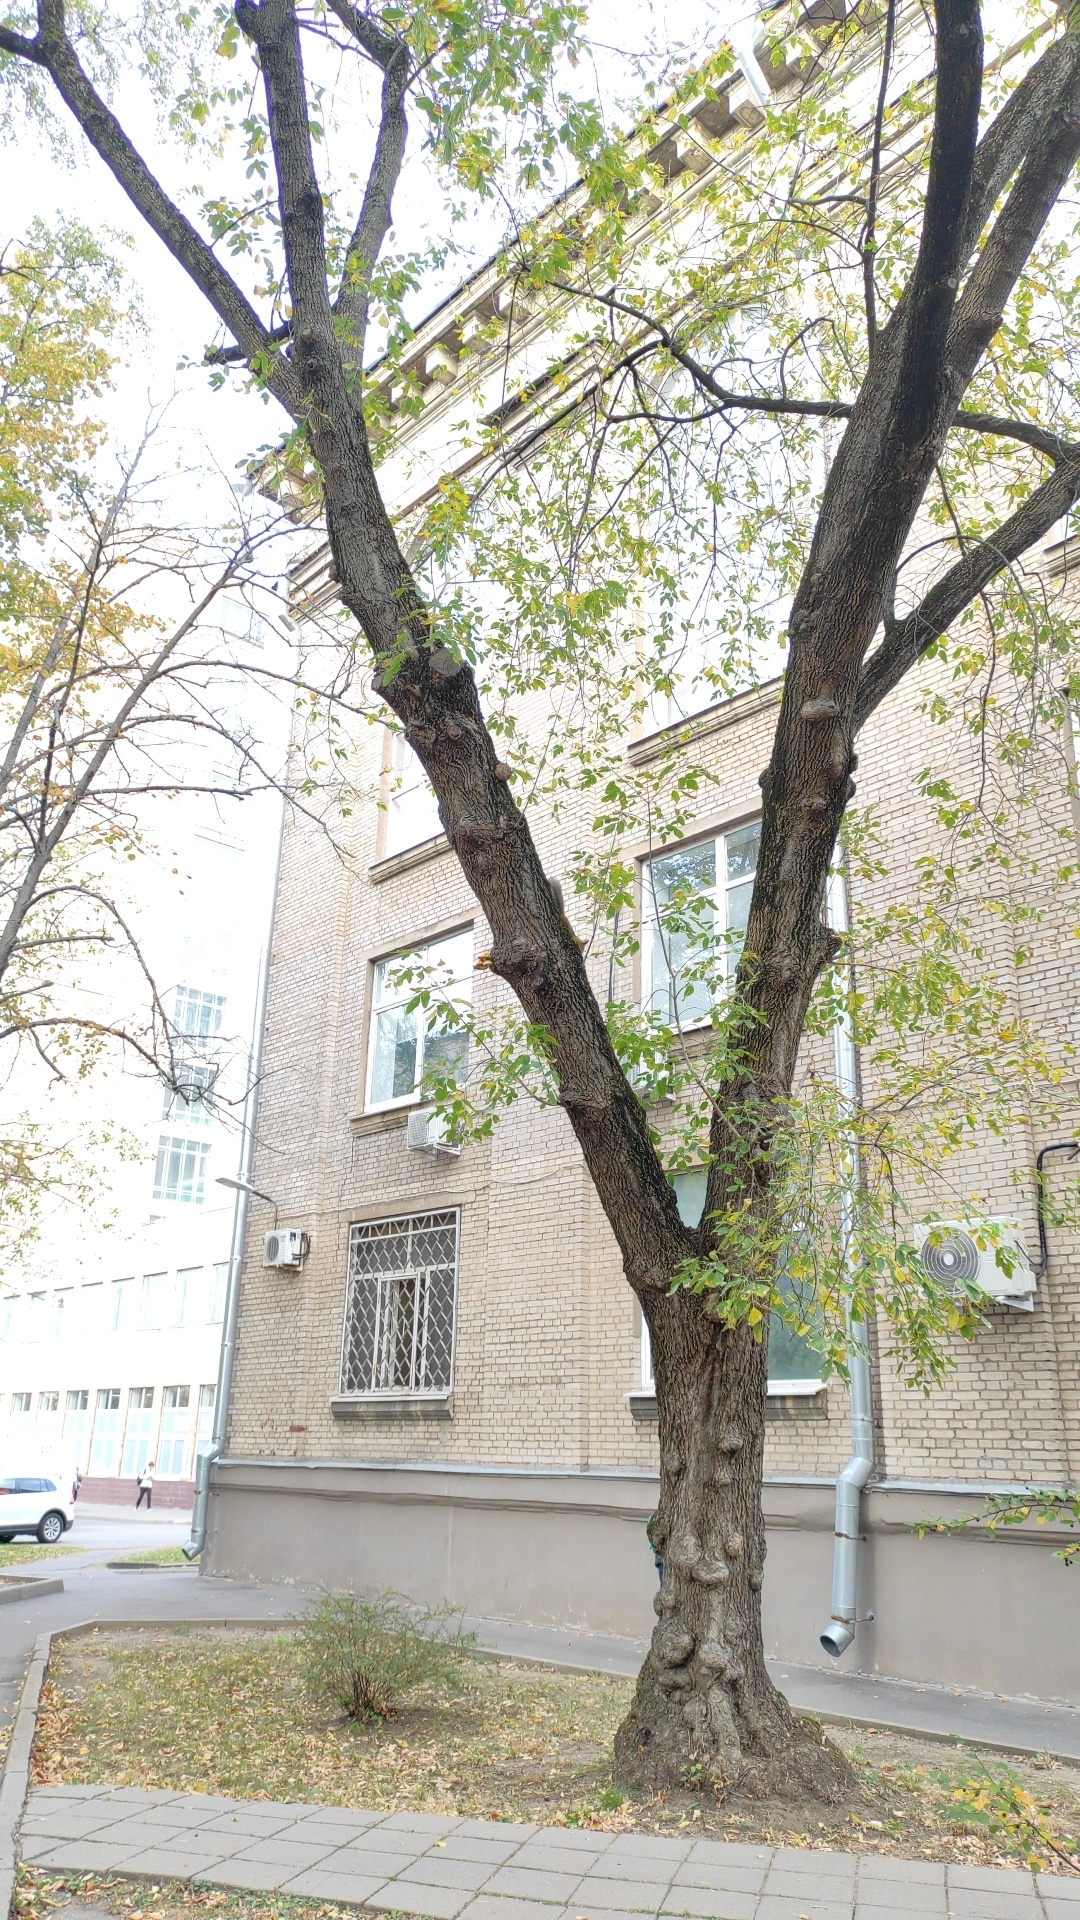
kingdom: Animalia
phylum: Chordata
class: Mammalia
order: Rodentia
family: Sciuridae
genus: Sciurus
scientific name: Sciurus vulgaris
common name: Eurasian red squirrel
